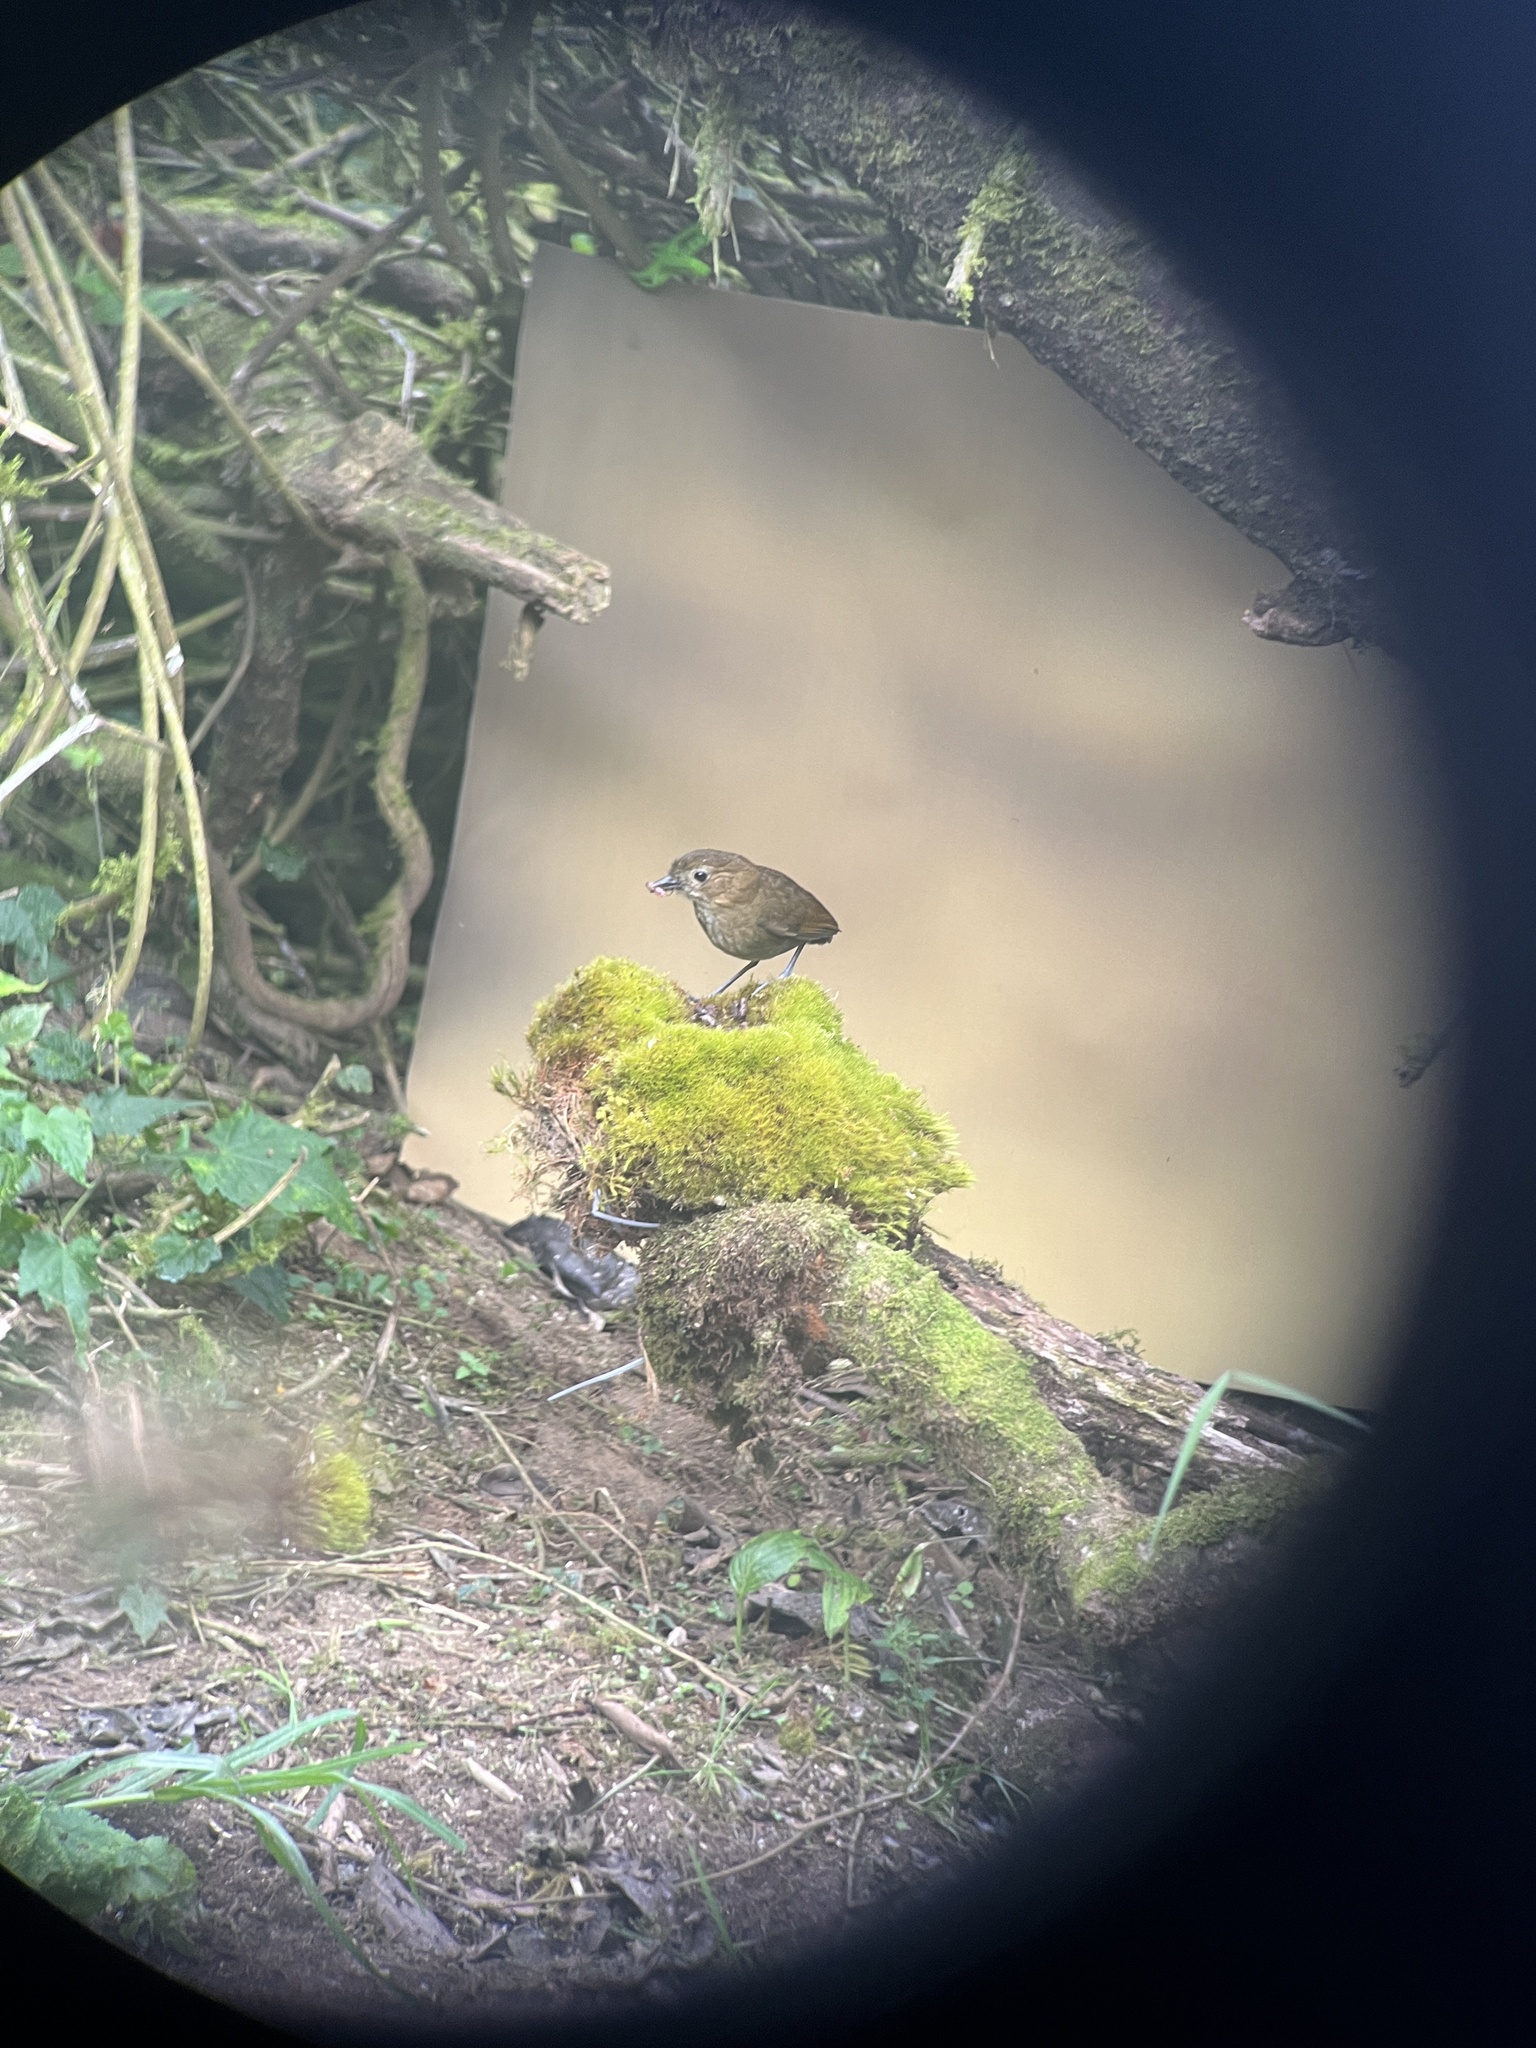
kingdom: Animalia
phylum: Chordata
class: Aves
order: Passeriformes
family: Grallariidae
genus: Grallaria
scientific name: Grallaria milleri
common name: Brown-banded antpitta
